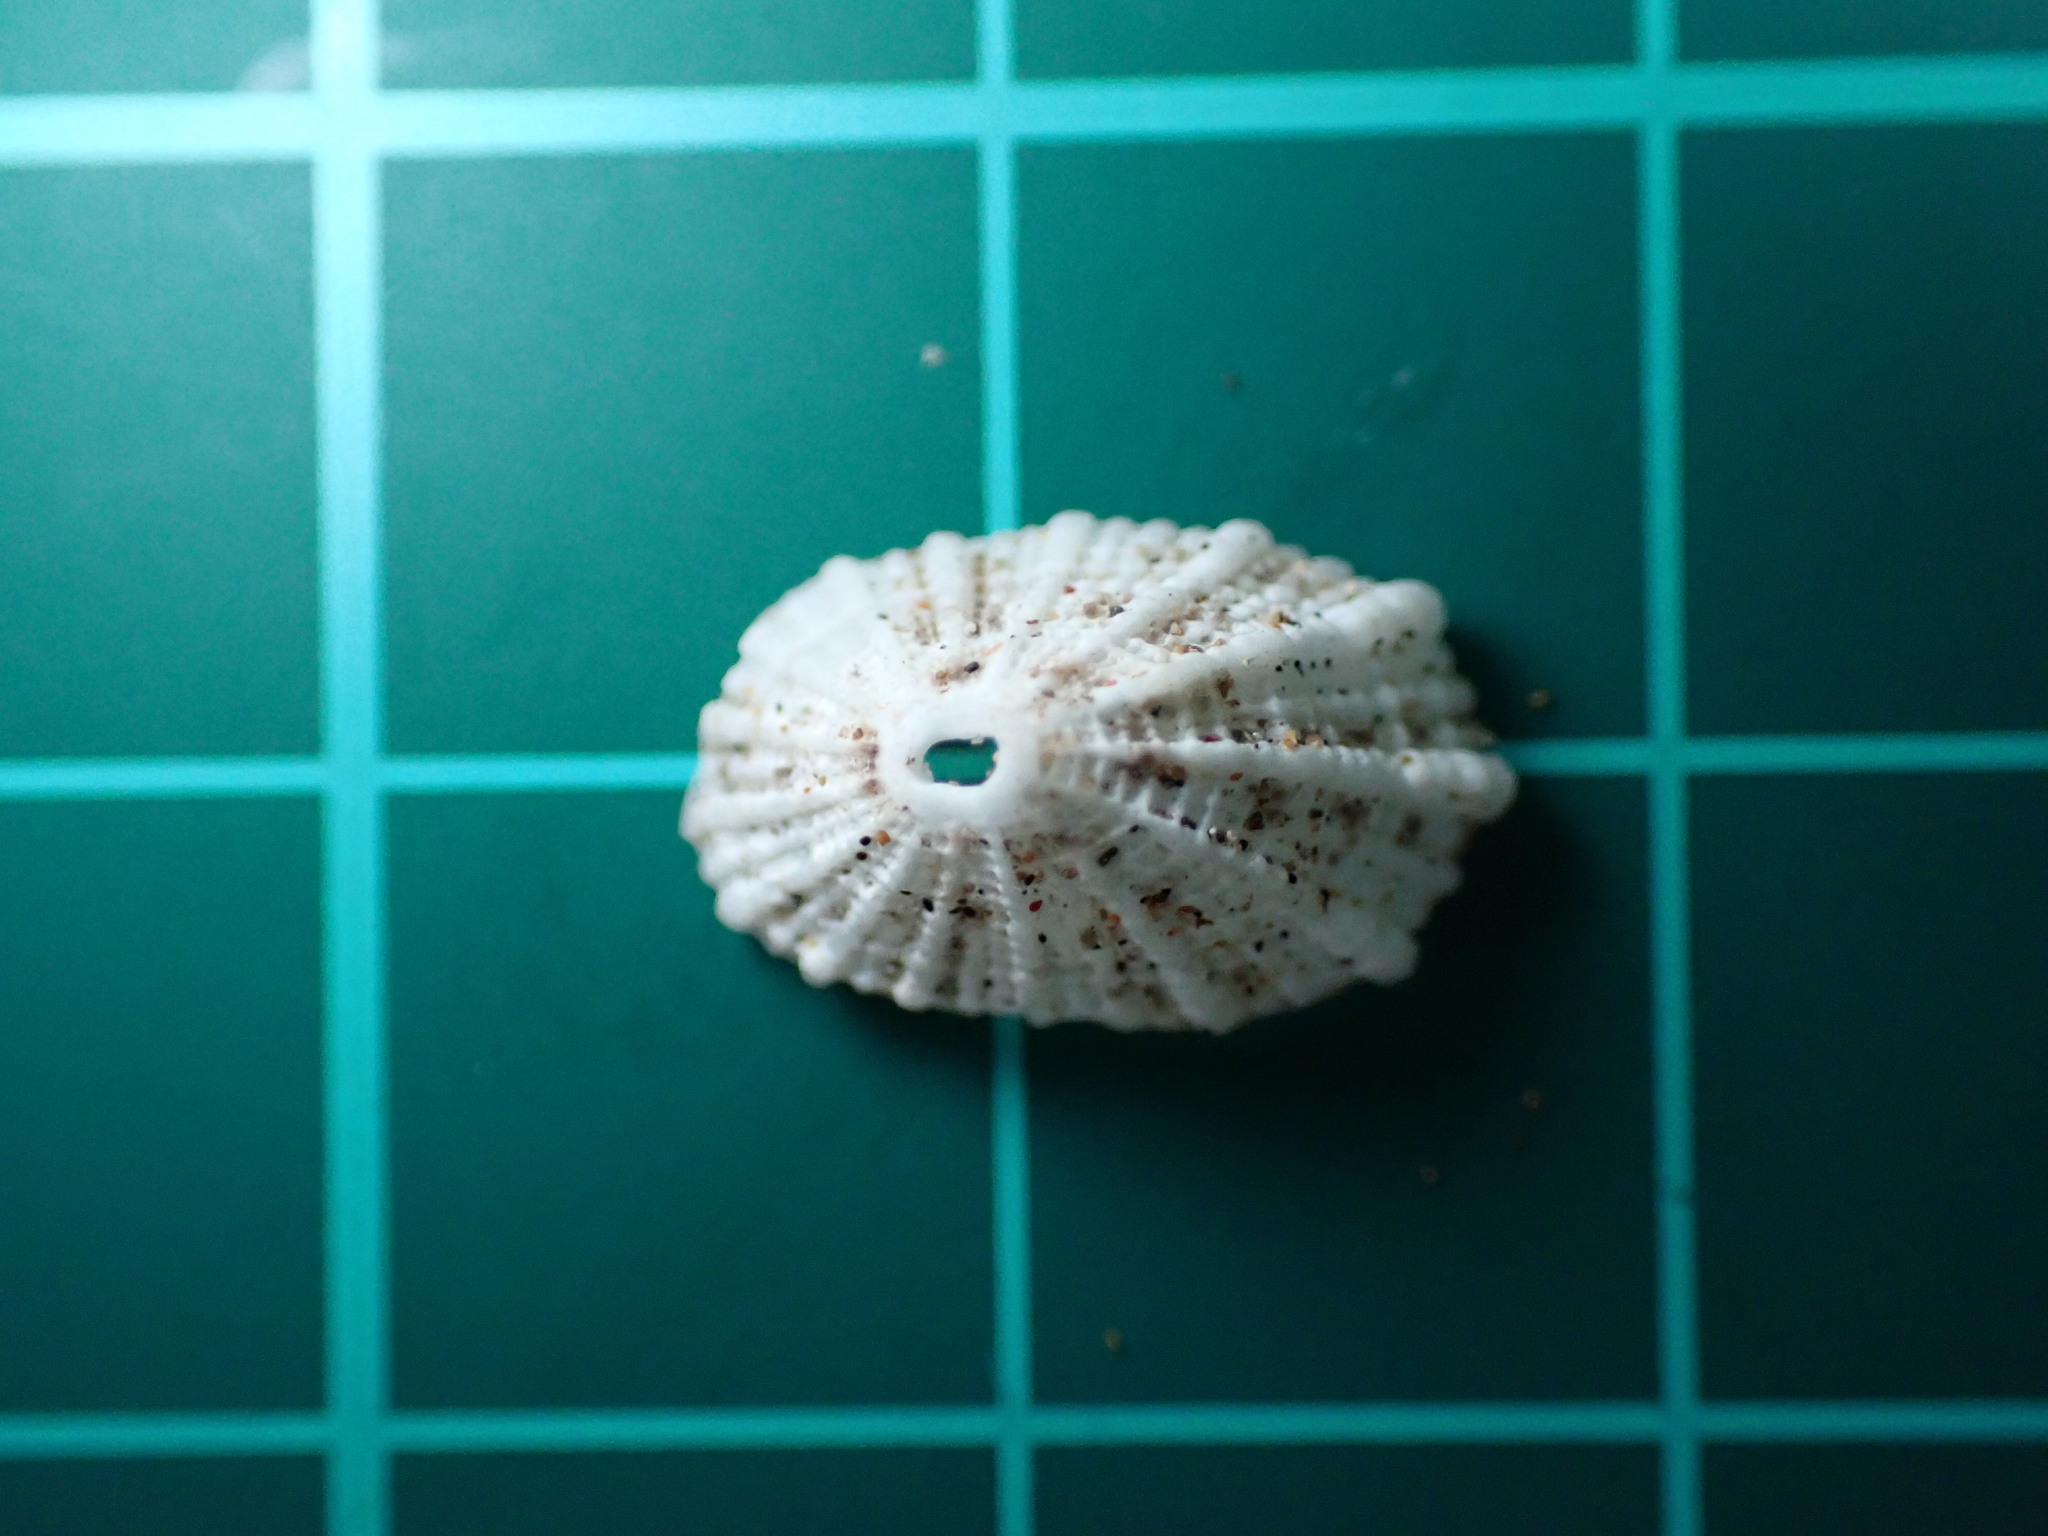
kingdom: Animalia
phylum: Mollusca
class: Gastropoda
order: Lepetellida
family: Fissurellidae
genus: Diodora
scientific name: Diodora octagona
